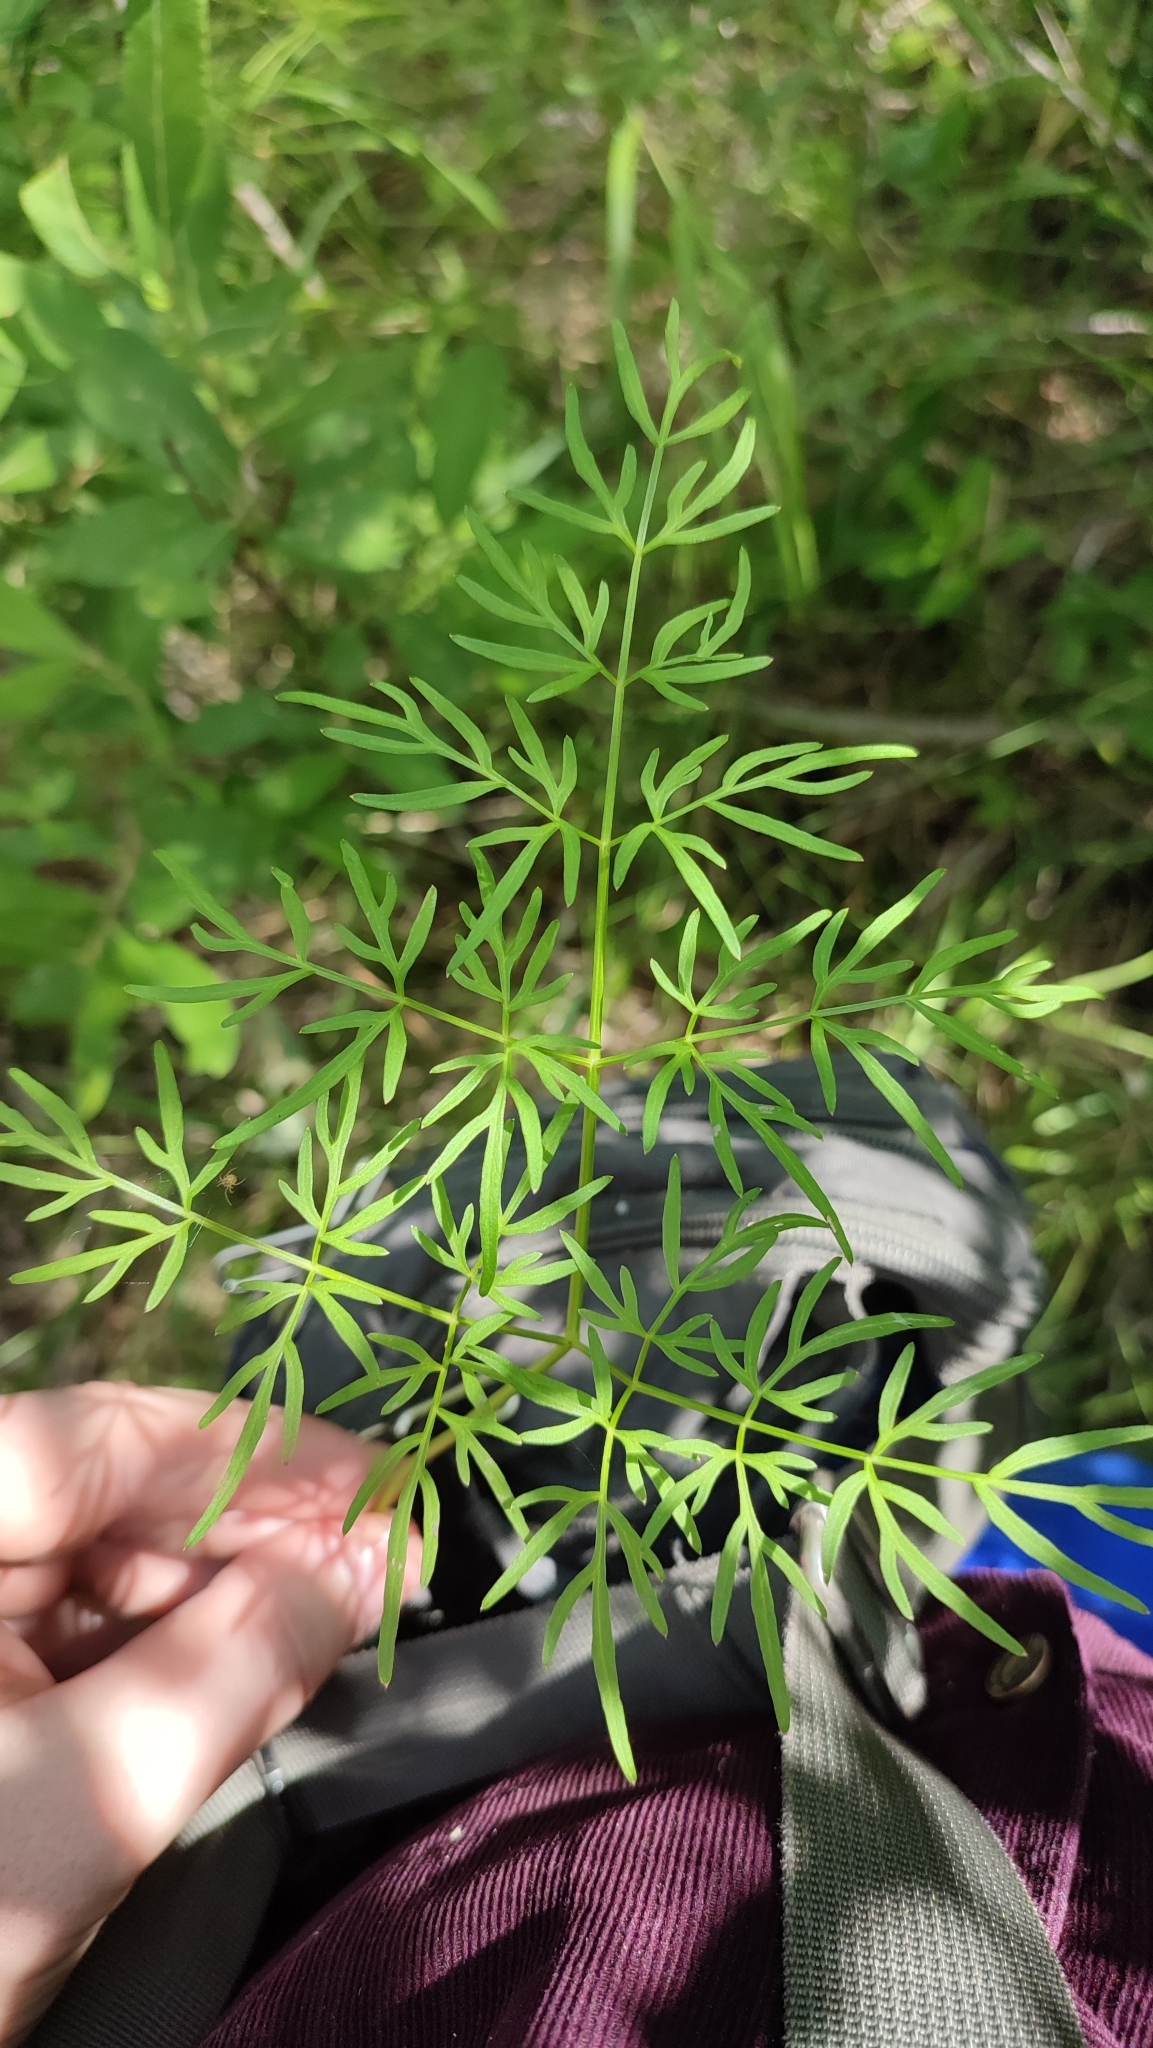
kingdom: Plantae
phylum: Tracheophyta
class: Magnoliopsida
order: Apiales
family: Apiaceae
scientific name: Apiaceae
